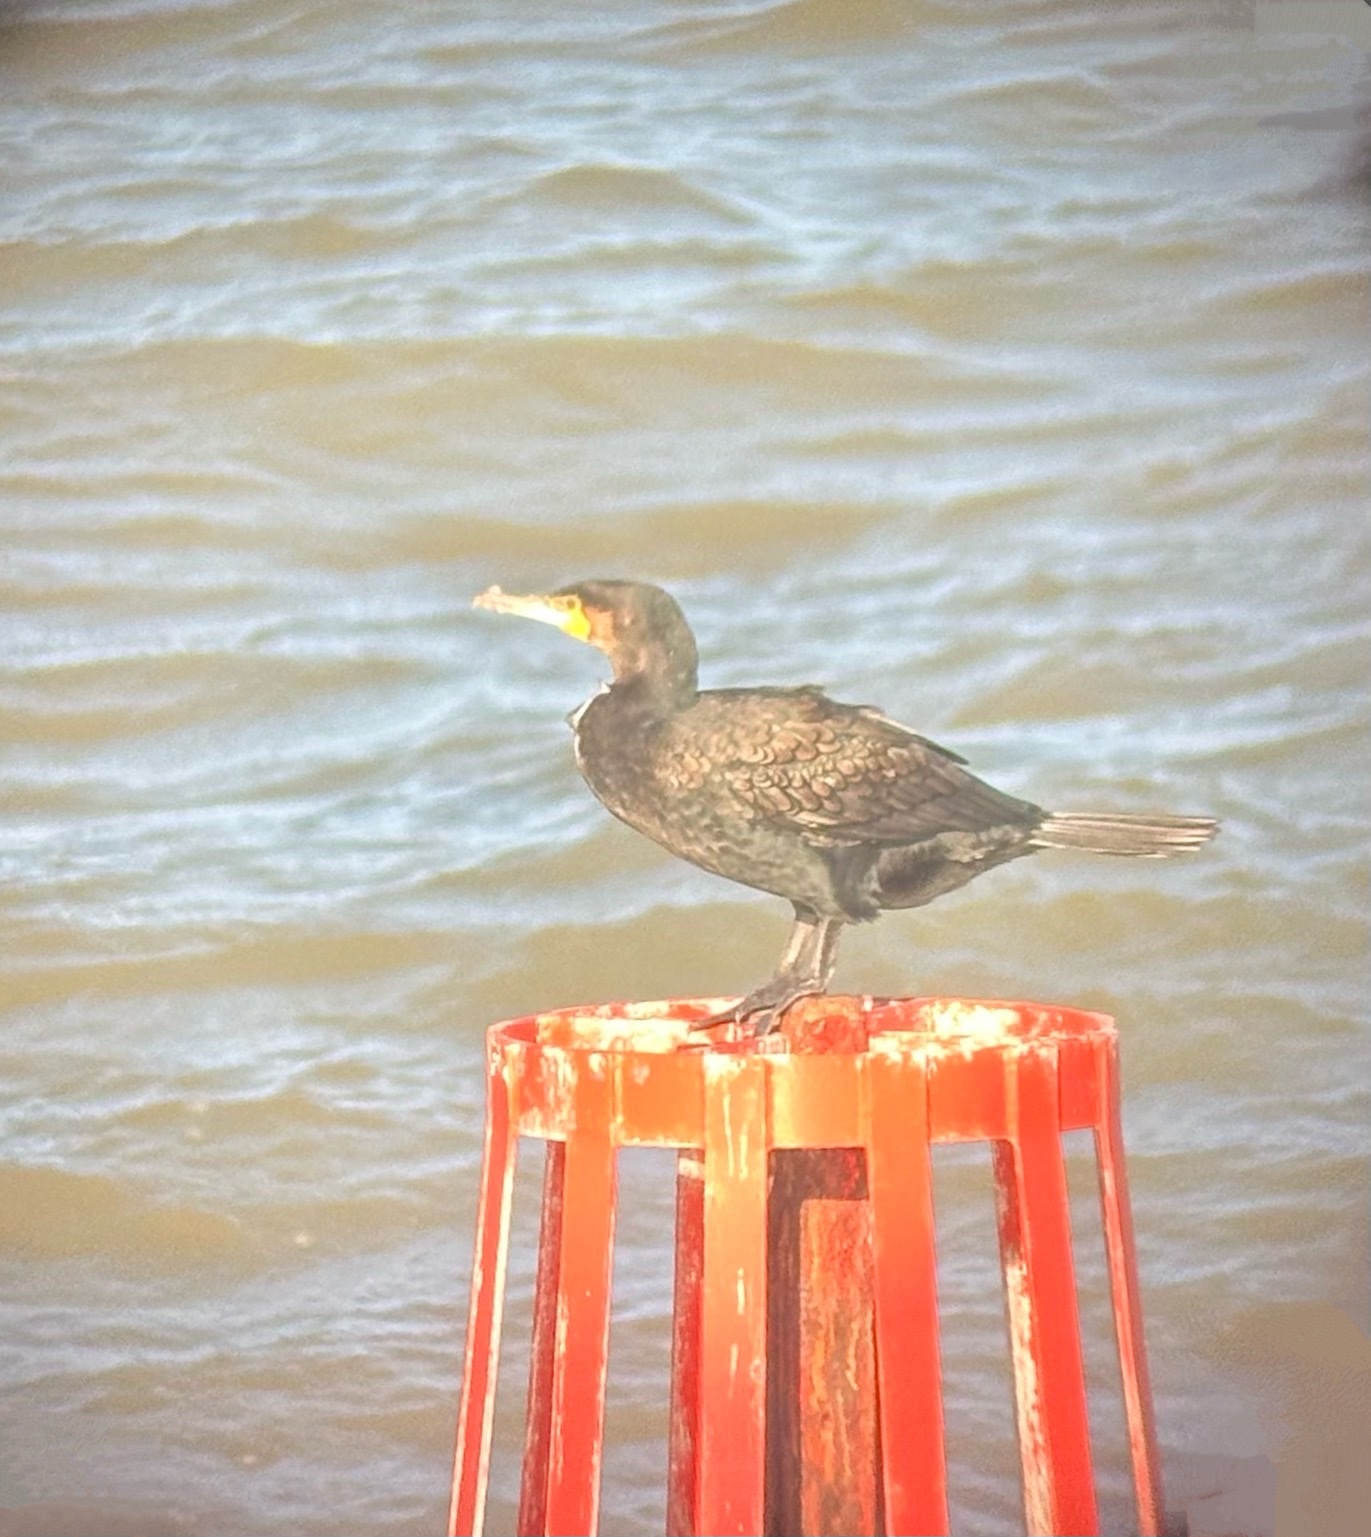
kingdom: Animalia
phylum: Chordata
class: Aves
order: Suliformes
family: Phalacrocoracidae
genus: Phalacrocorax
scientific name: Phalacrocorax carbo
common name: Great cormorant
